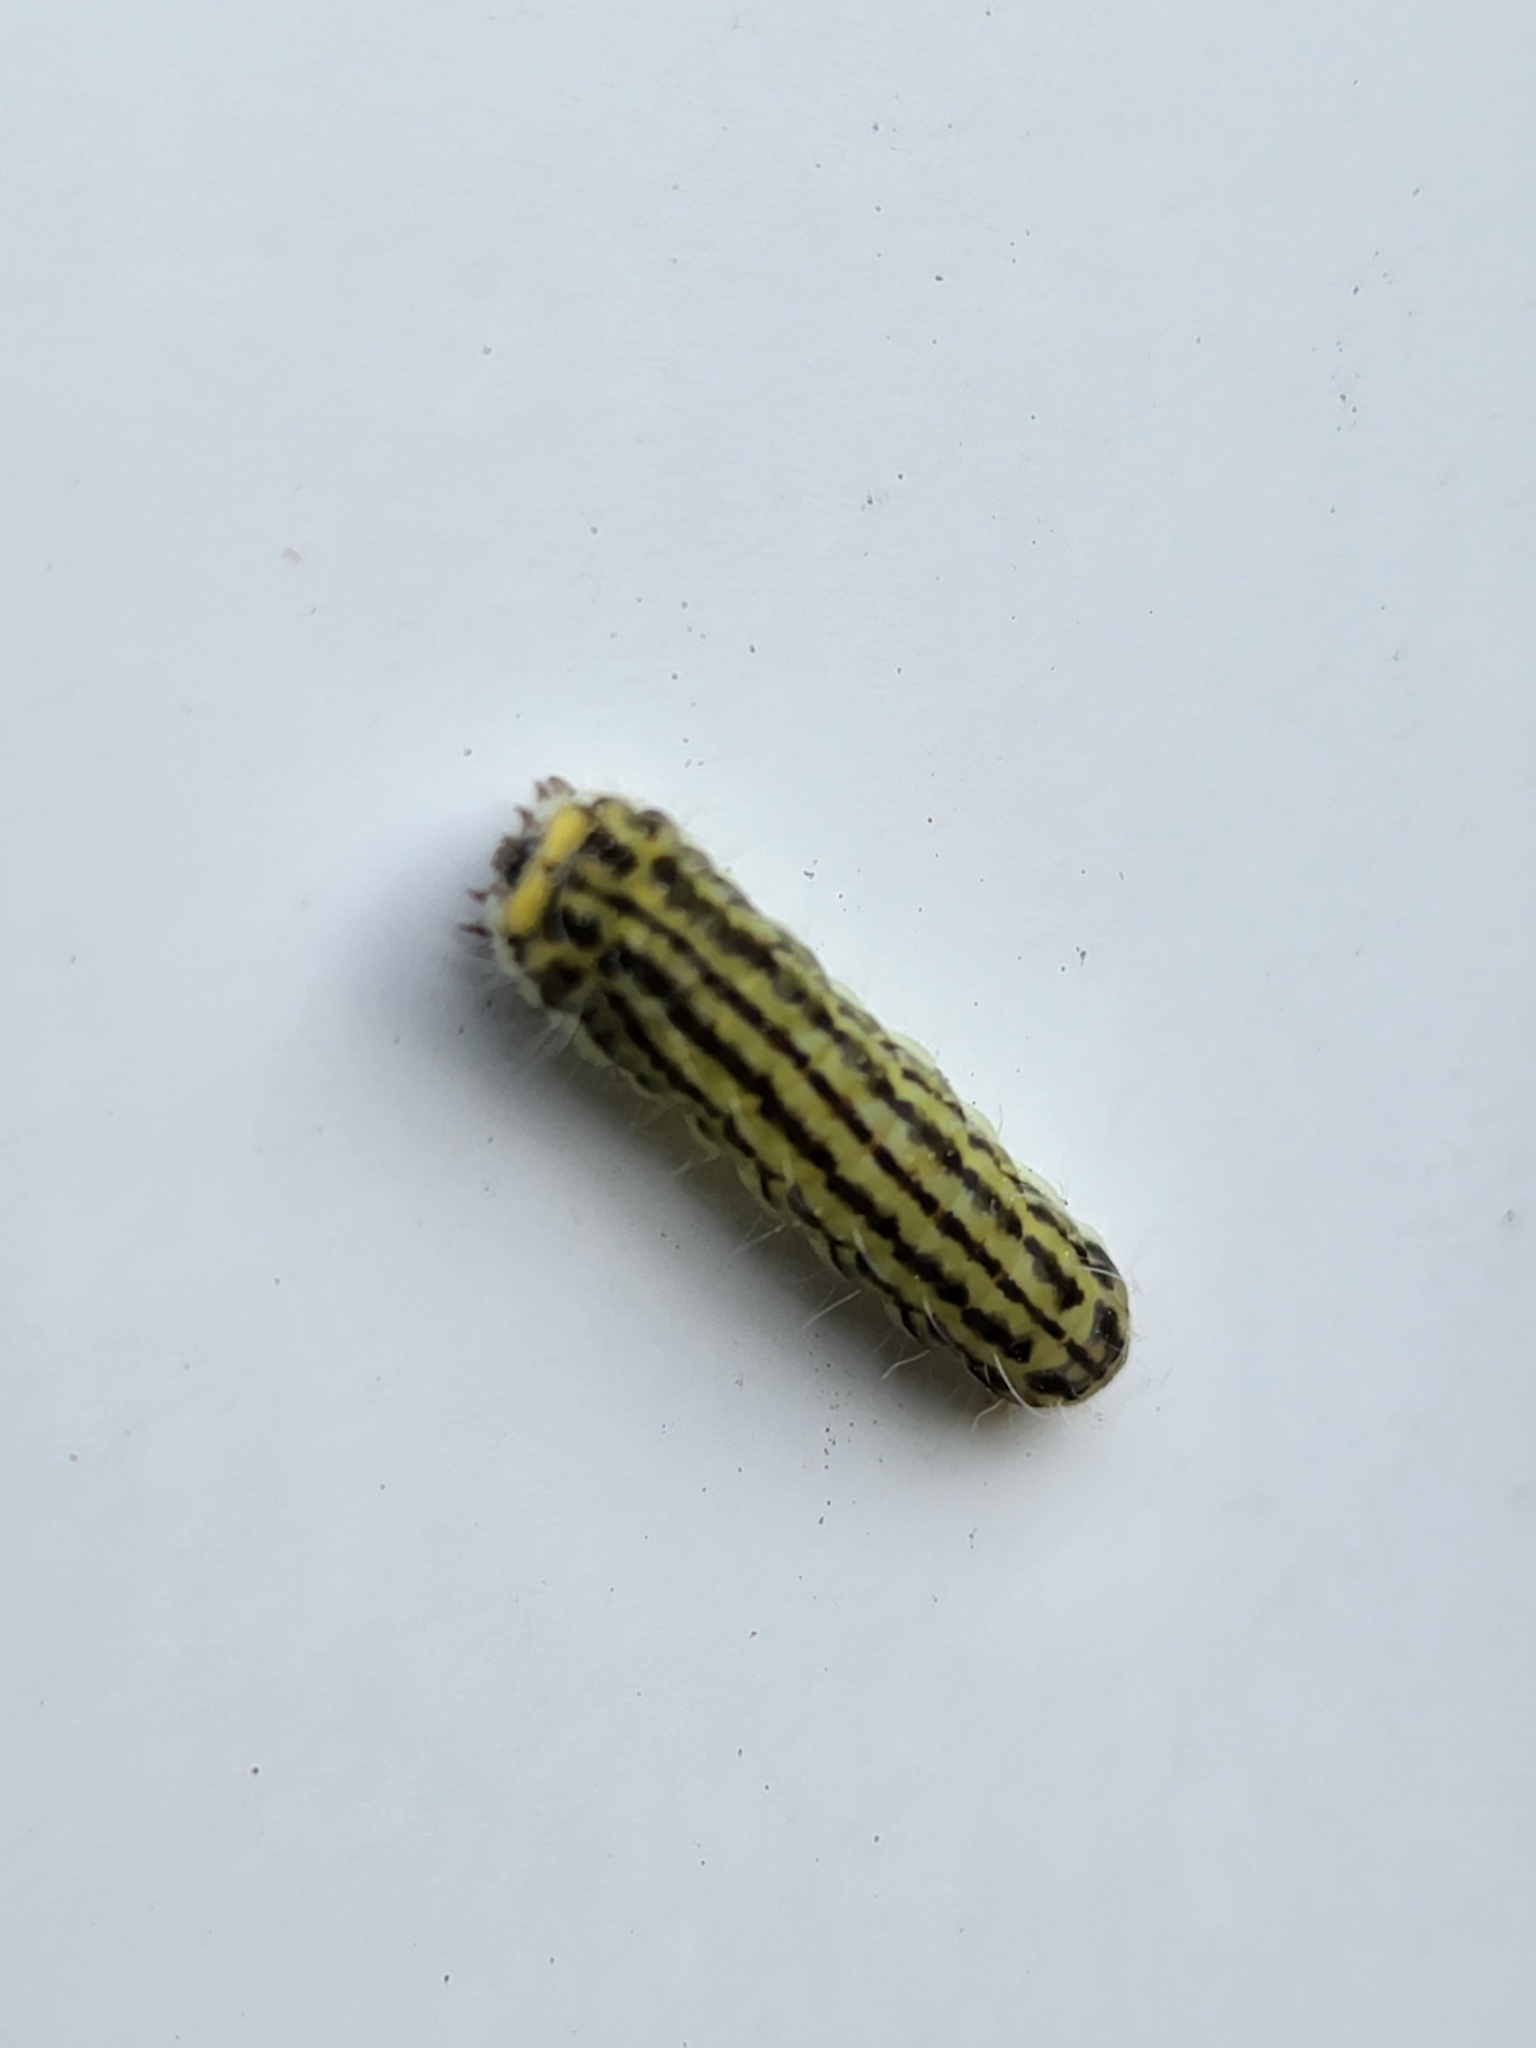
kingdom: Animalia
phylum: Arthropoda
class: Insecta
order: Lepidoptera
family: Zygaenidae
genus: Sinica
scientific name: Sinica sinica
